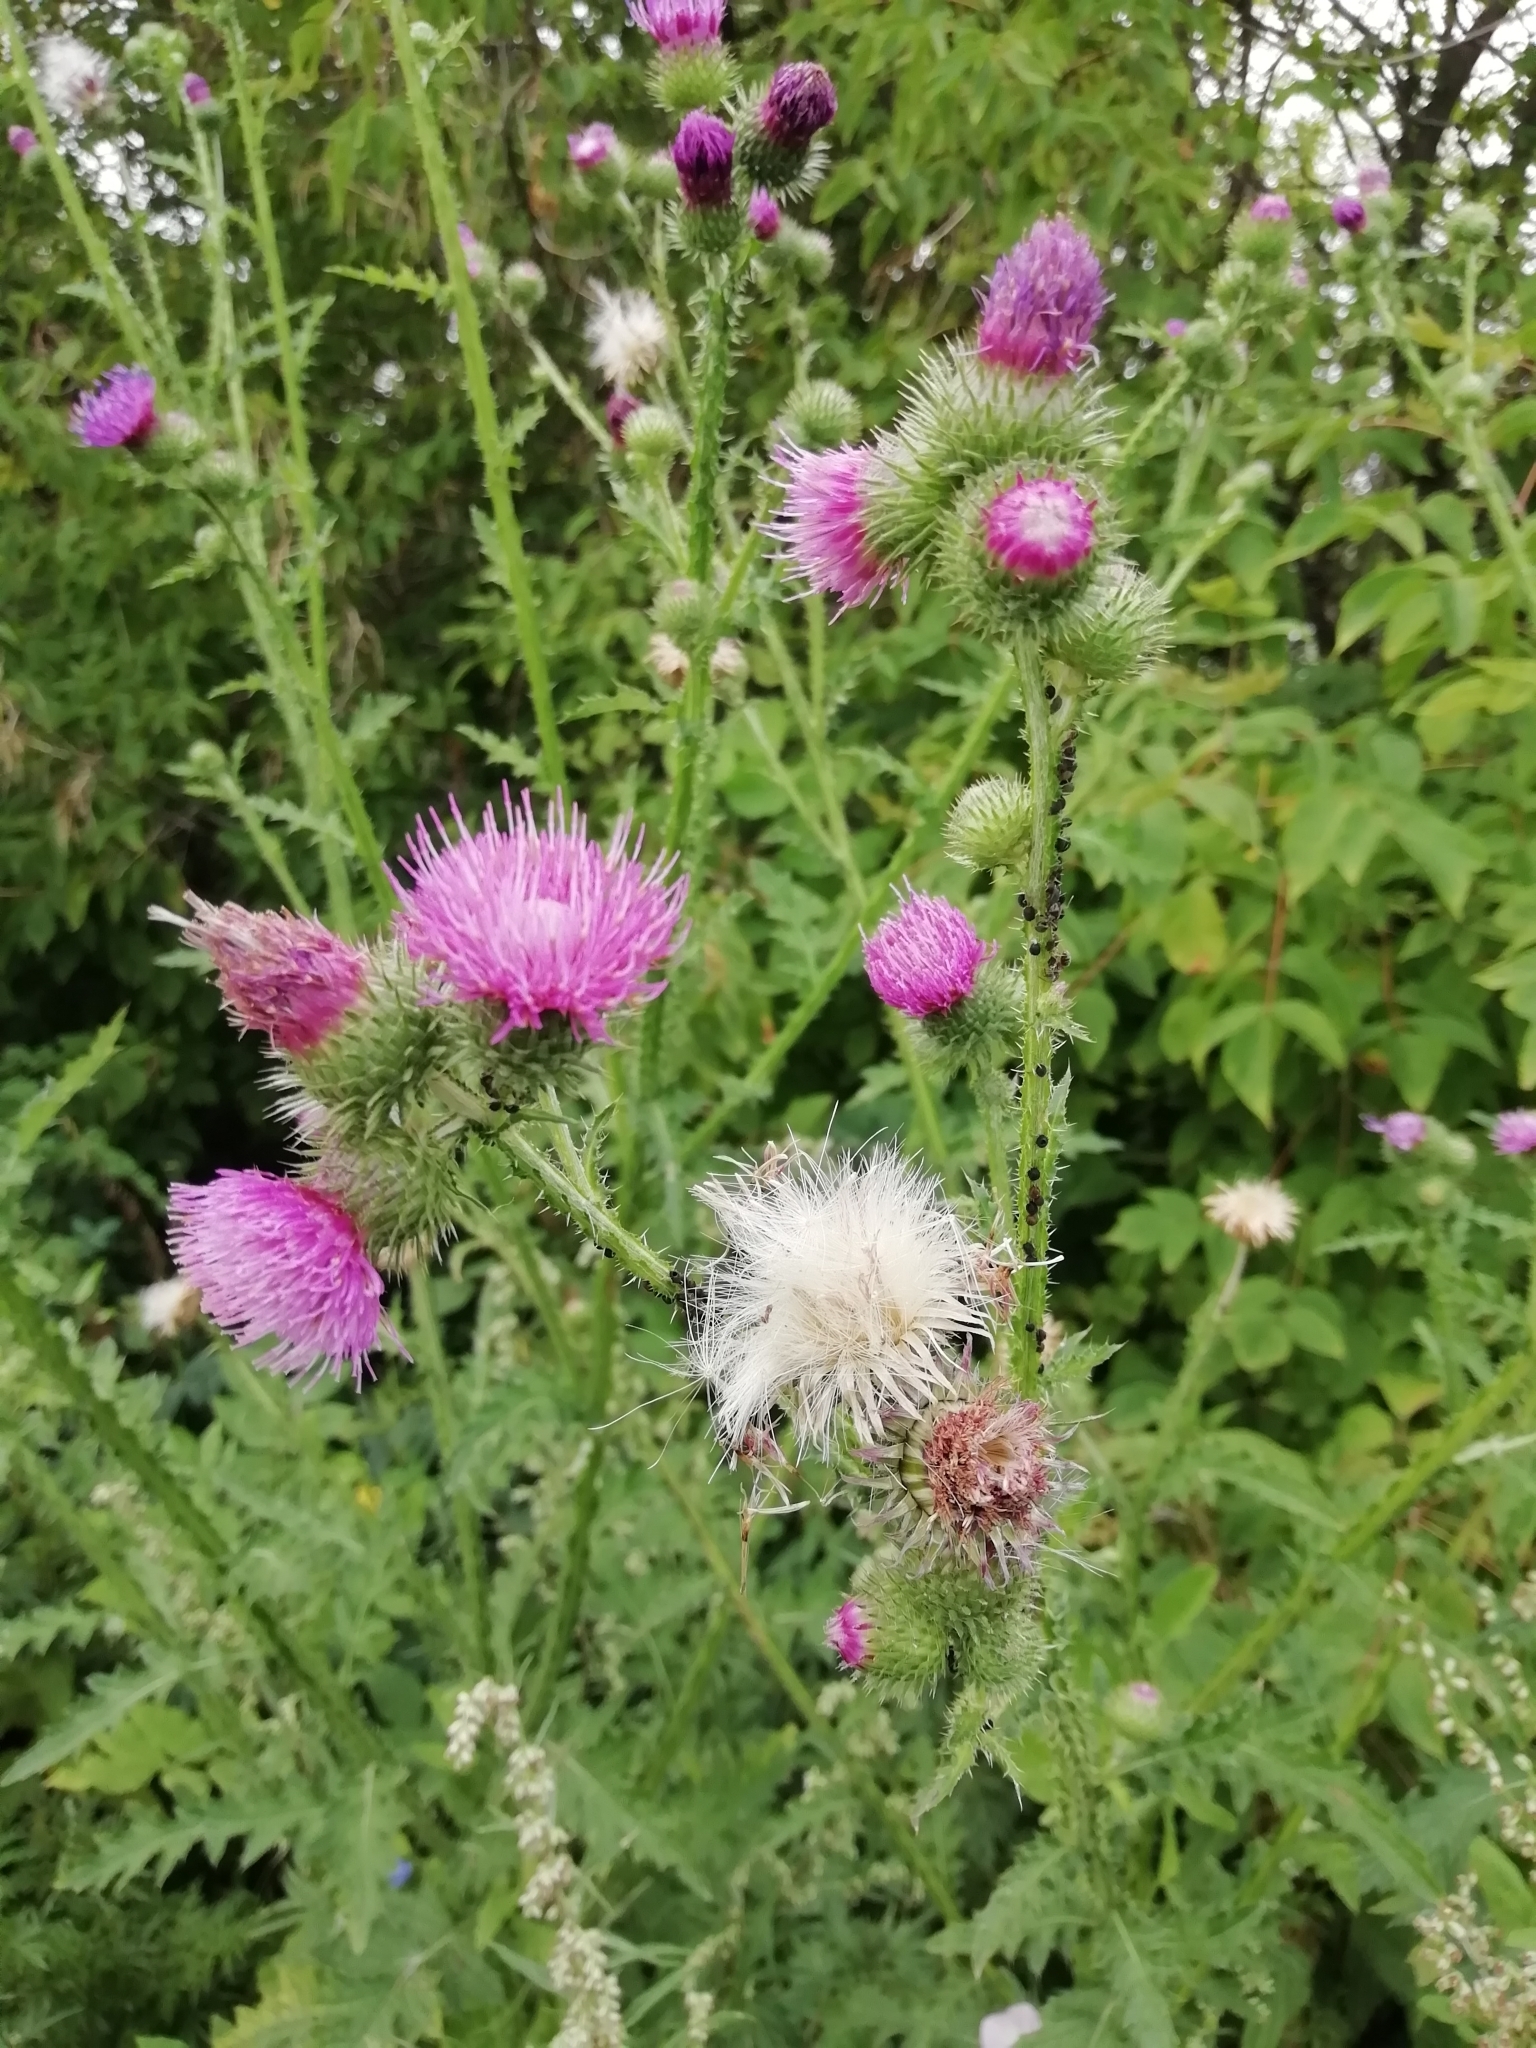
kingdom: Plantae
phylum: Tracheophyta
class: Magnoliopsida
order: Asterales
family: Asteraceae
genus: Carduus
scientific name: Carduus crispus
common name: Welted thistle
